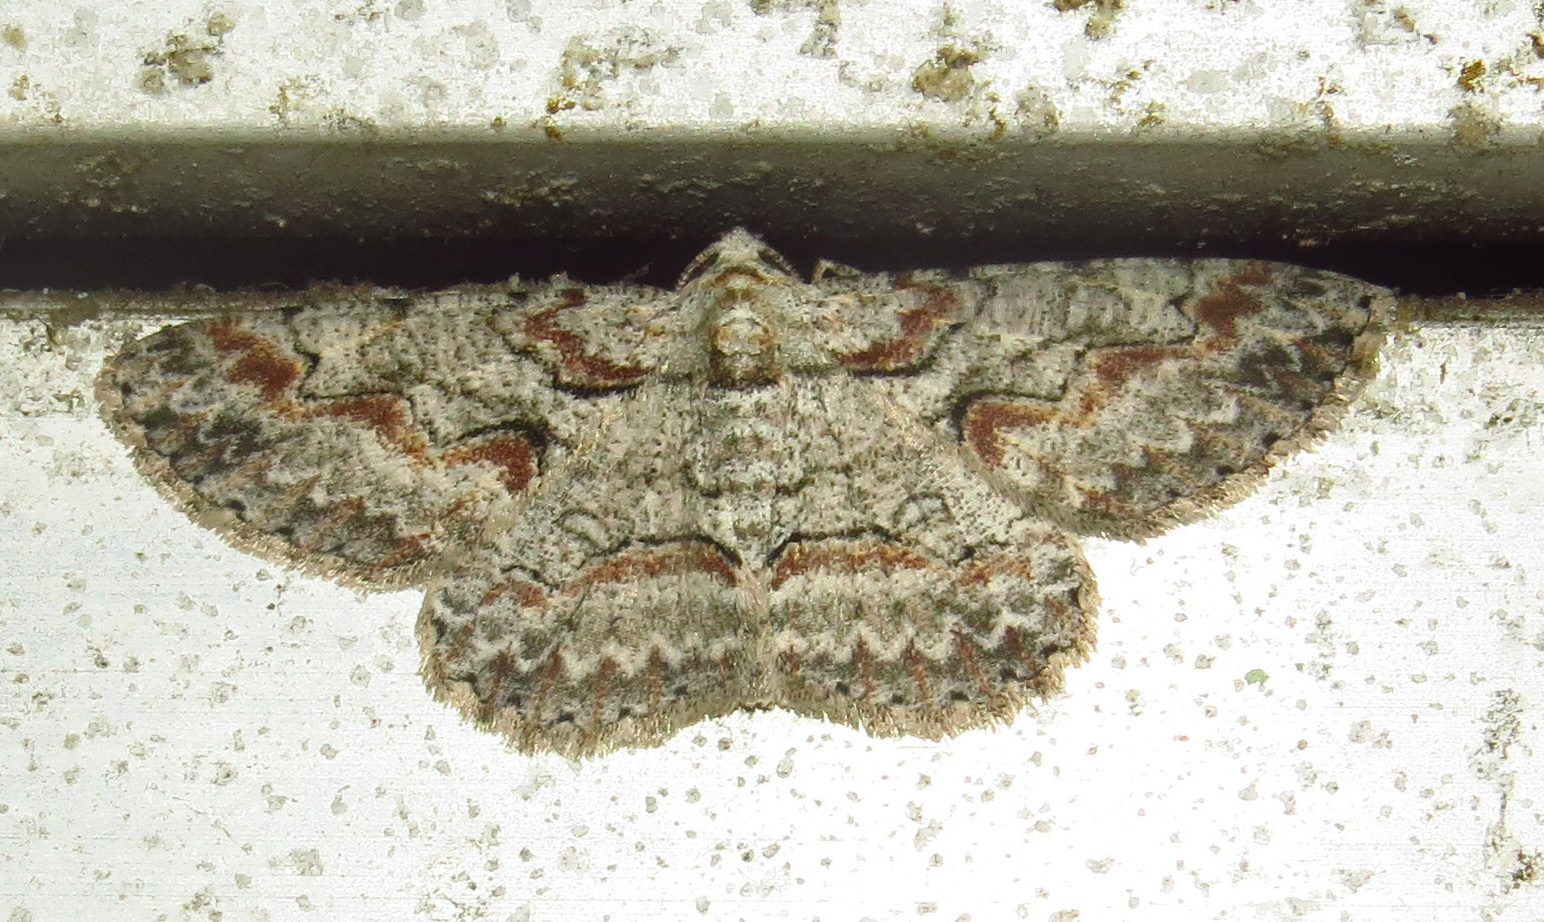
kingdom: Animalia
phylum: Arthropoda
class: Insecta
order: Lepidoptera
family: Geometridae
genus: Iridopsis
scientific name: Iridopsis defectaria
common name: Brown-shaded gray
